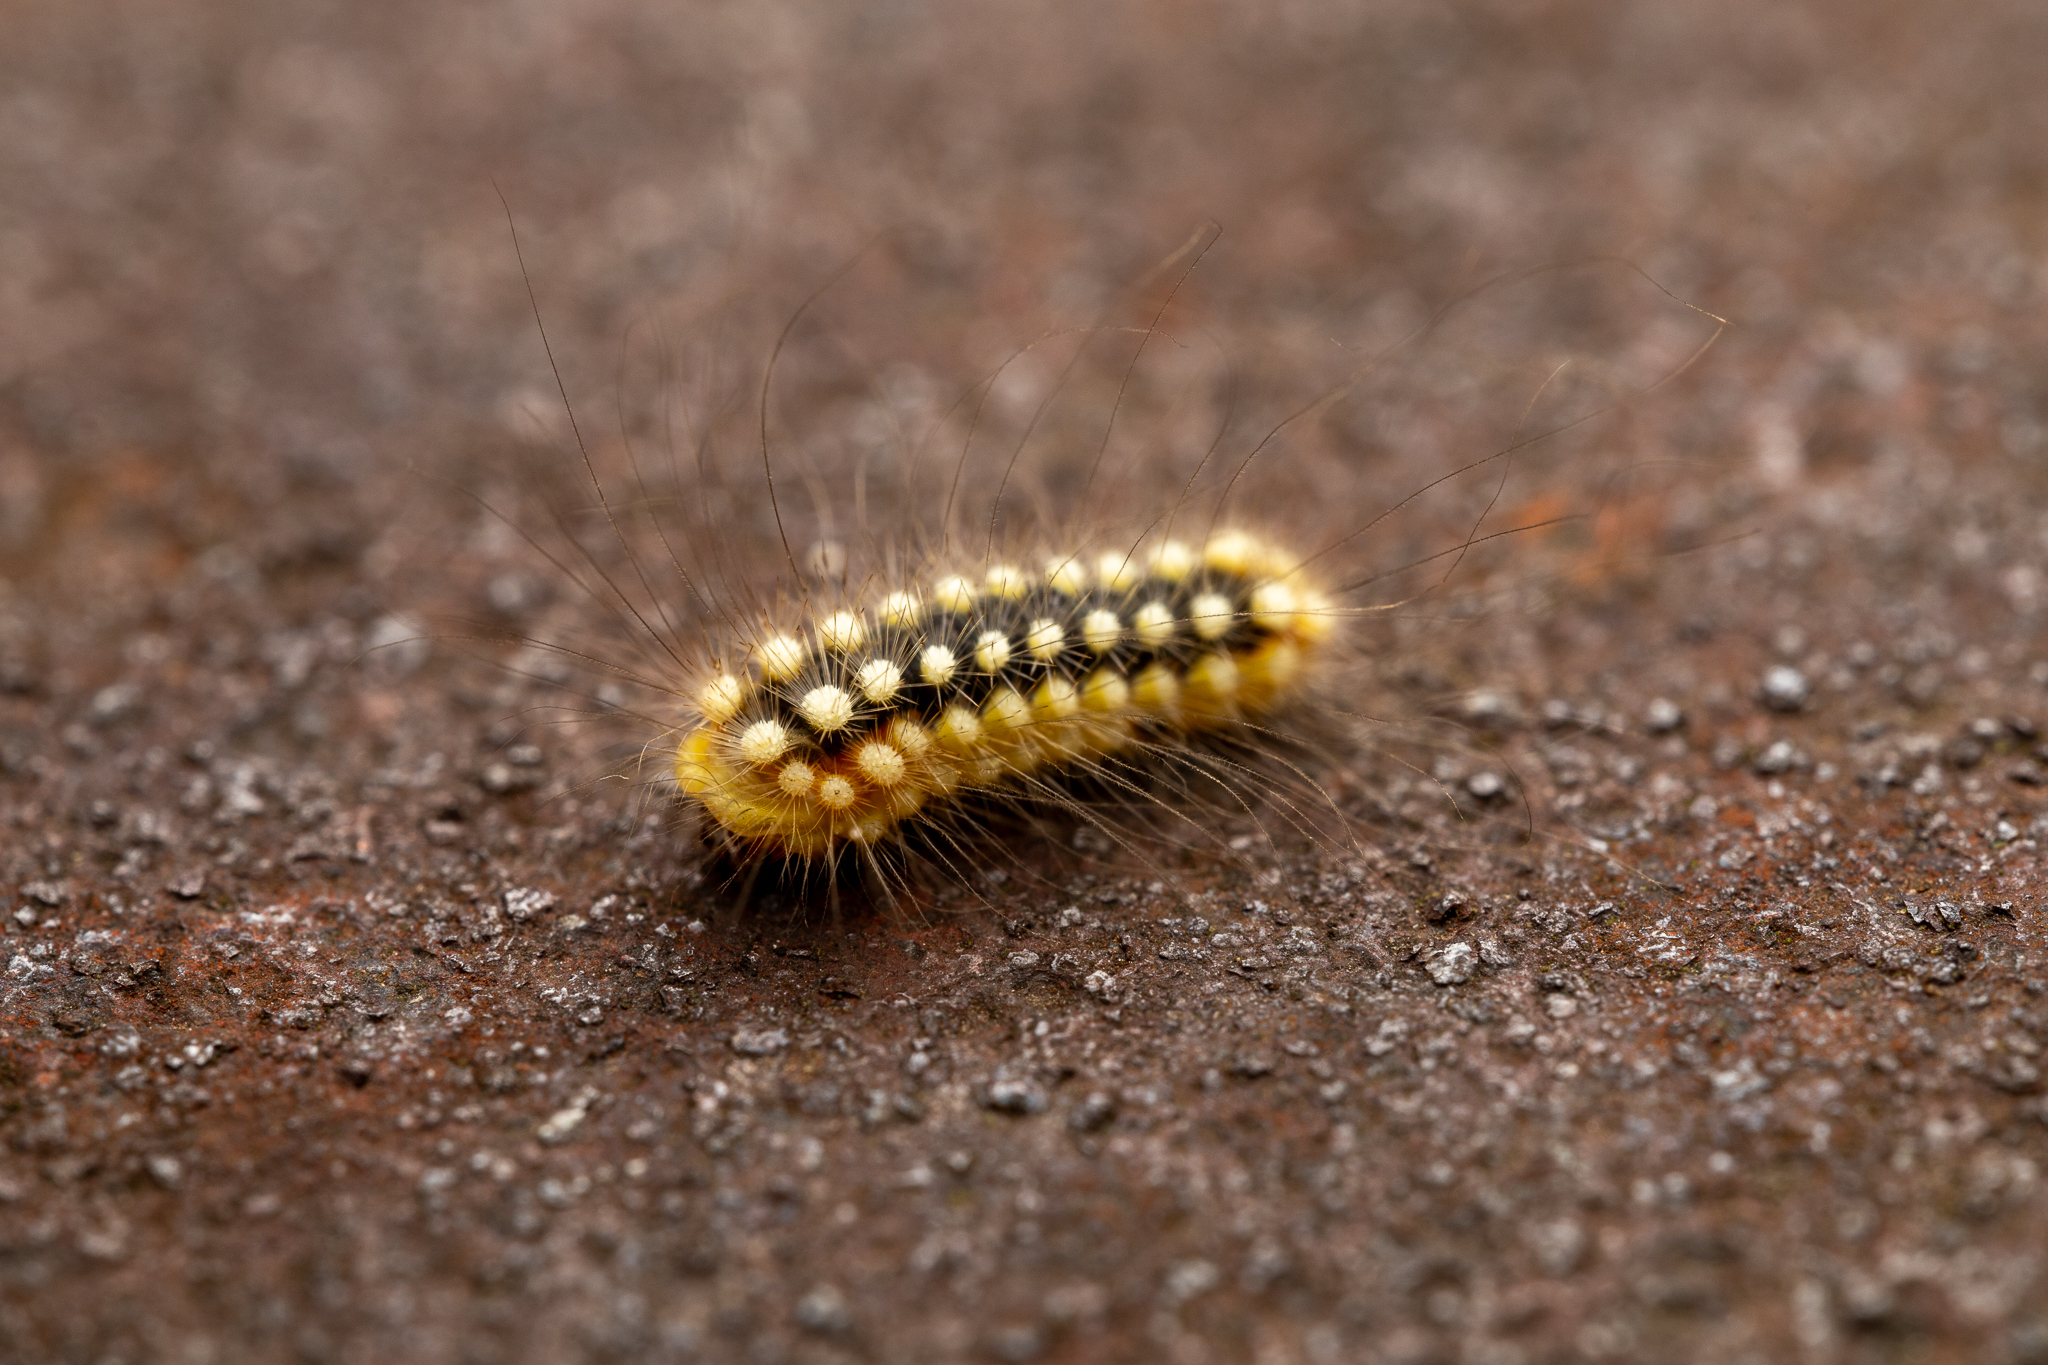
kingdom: Animalia
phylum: Arthropoda
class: Insecta
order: Lepidoptera
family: Megalopygidae
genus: Norape
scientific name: Norape cretata
